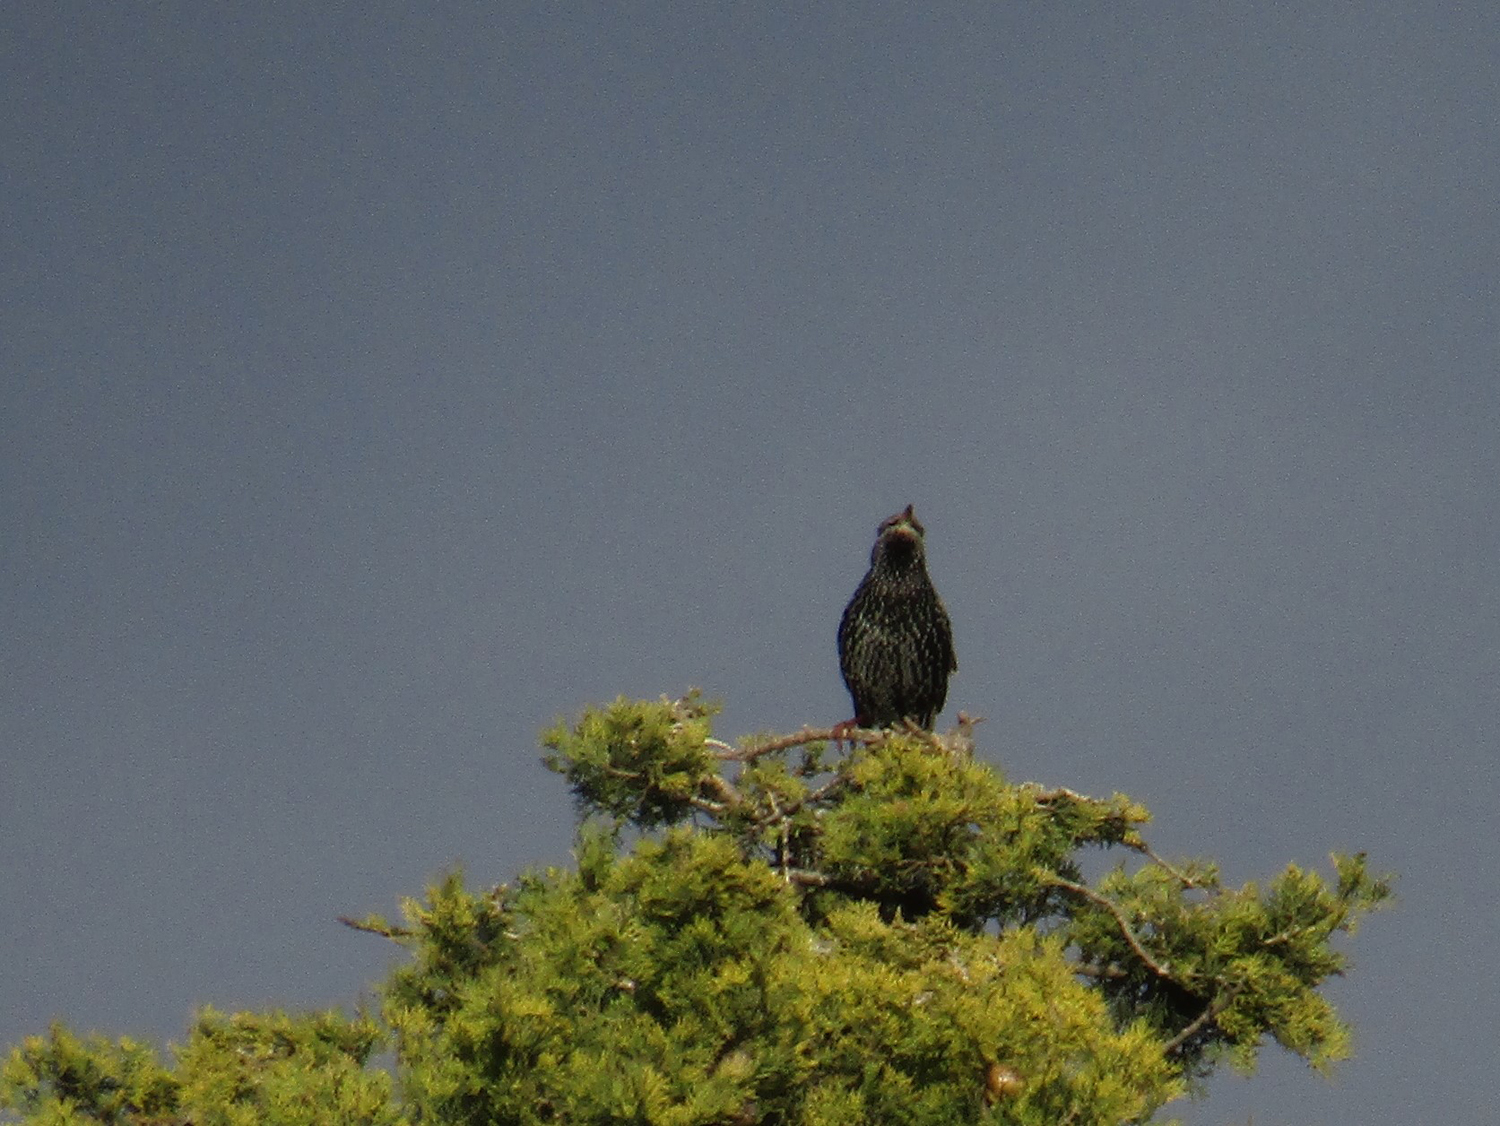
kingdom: Animalia
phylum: Chordata
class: Aves
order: Passeriformes
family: Sturnidae
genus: Sturnus
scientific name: Sturnus vulgaris
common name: Common starling
